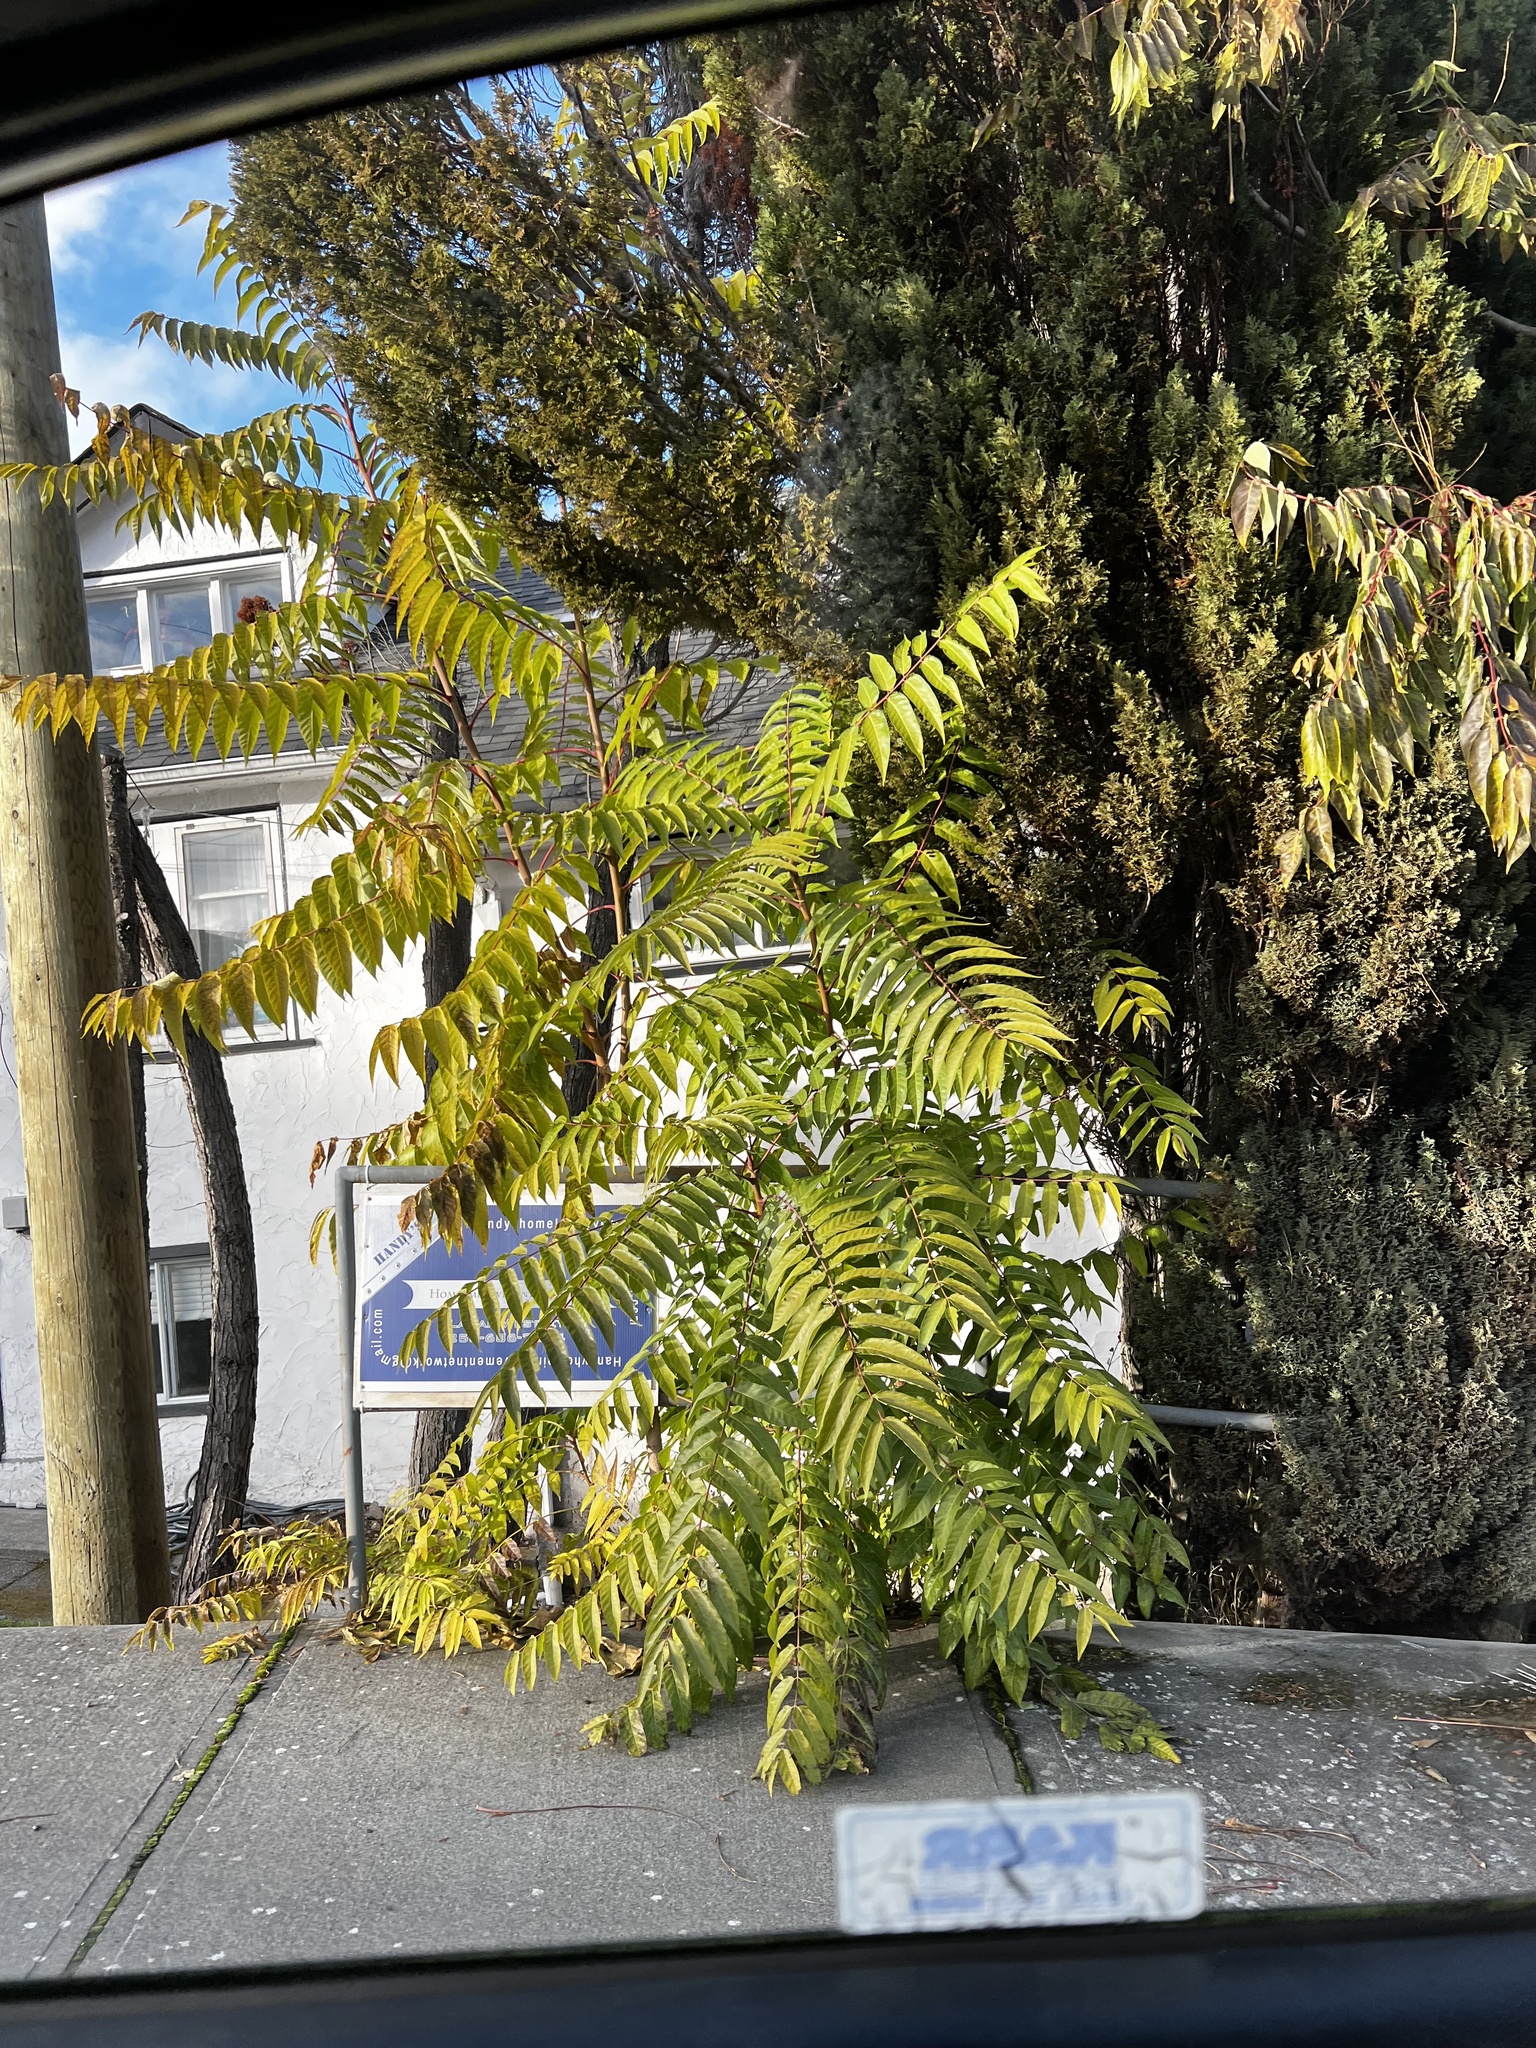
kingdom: Plantae
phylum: Tracheophyta
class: Magnoliopsida
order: Sapindales
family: Simaroubaceae
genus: Ailanthus
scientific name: Ailanthus altissima
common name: Tree-of-heaven
